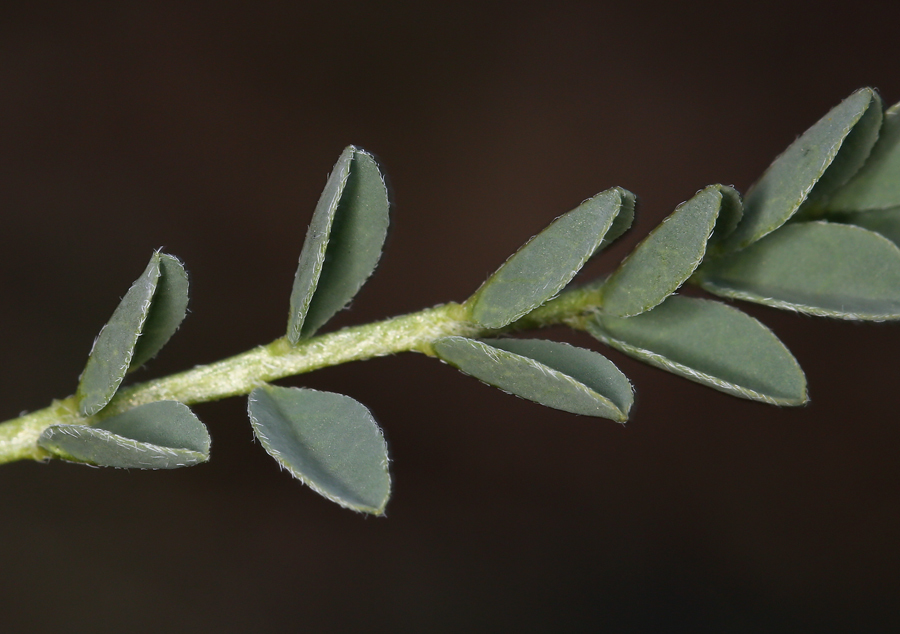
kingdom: Plantae
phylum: Tracheophyta
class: Magnoliopsida
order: Fabales
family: Fabaceae
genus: Astragalus
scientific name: Astragalus lentiginosus
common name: Freckled milkvetch
